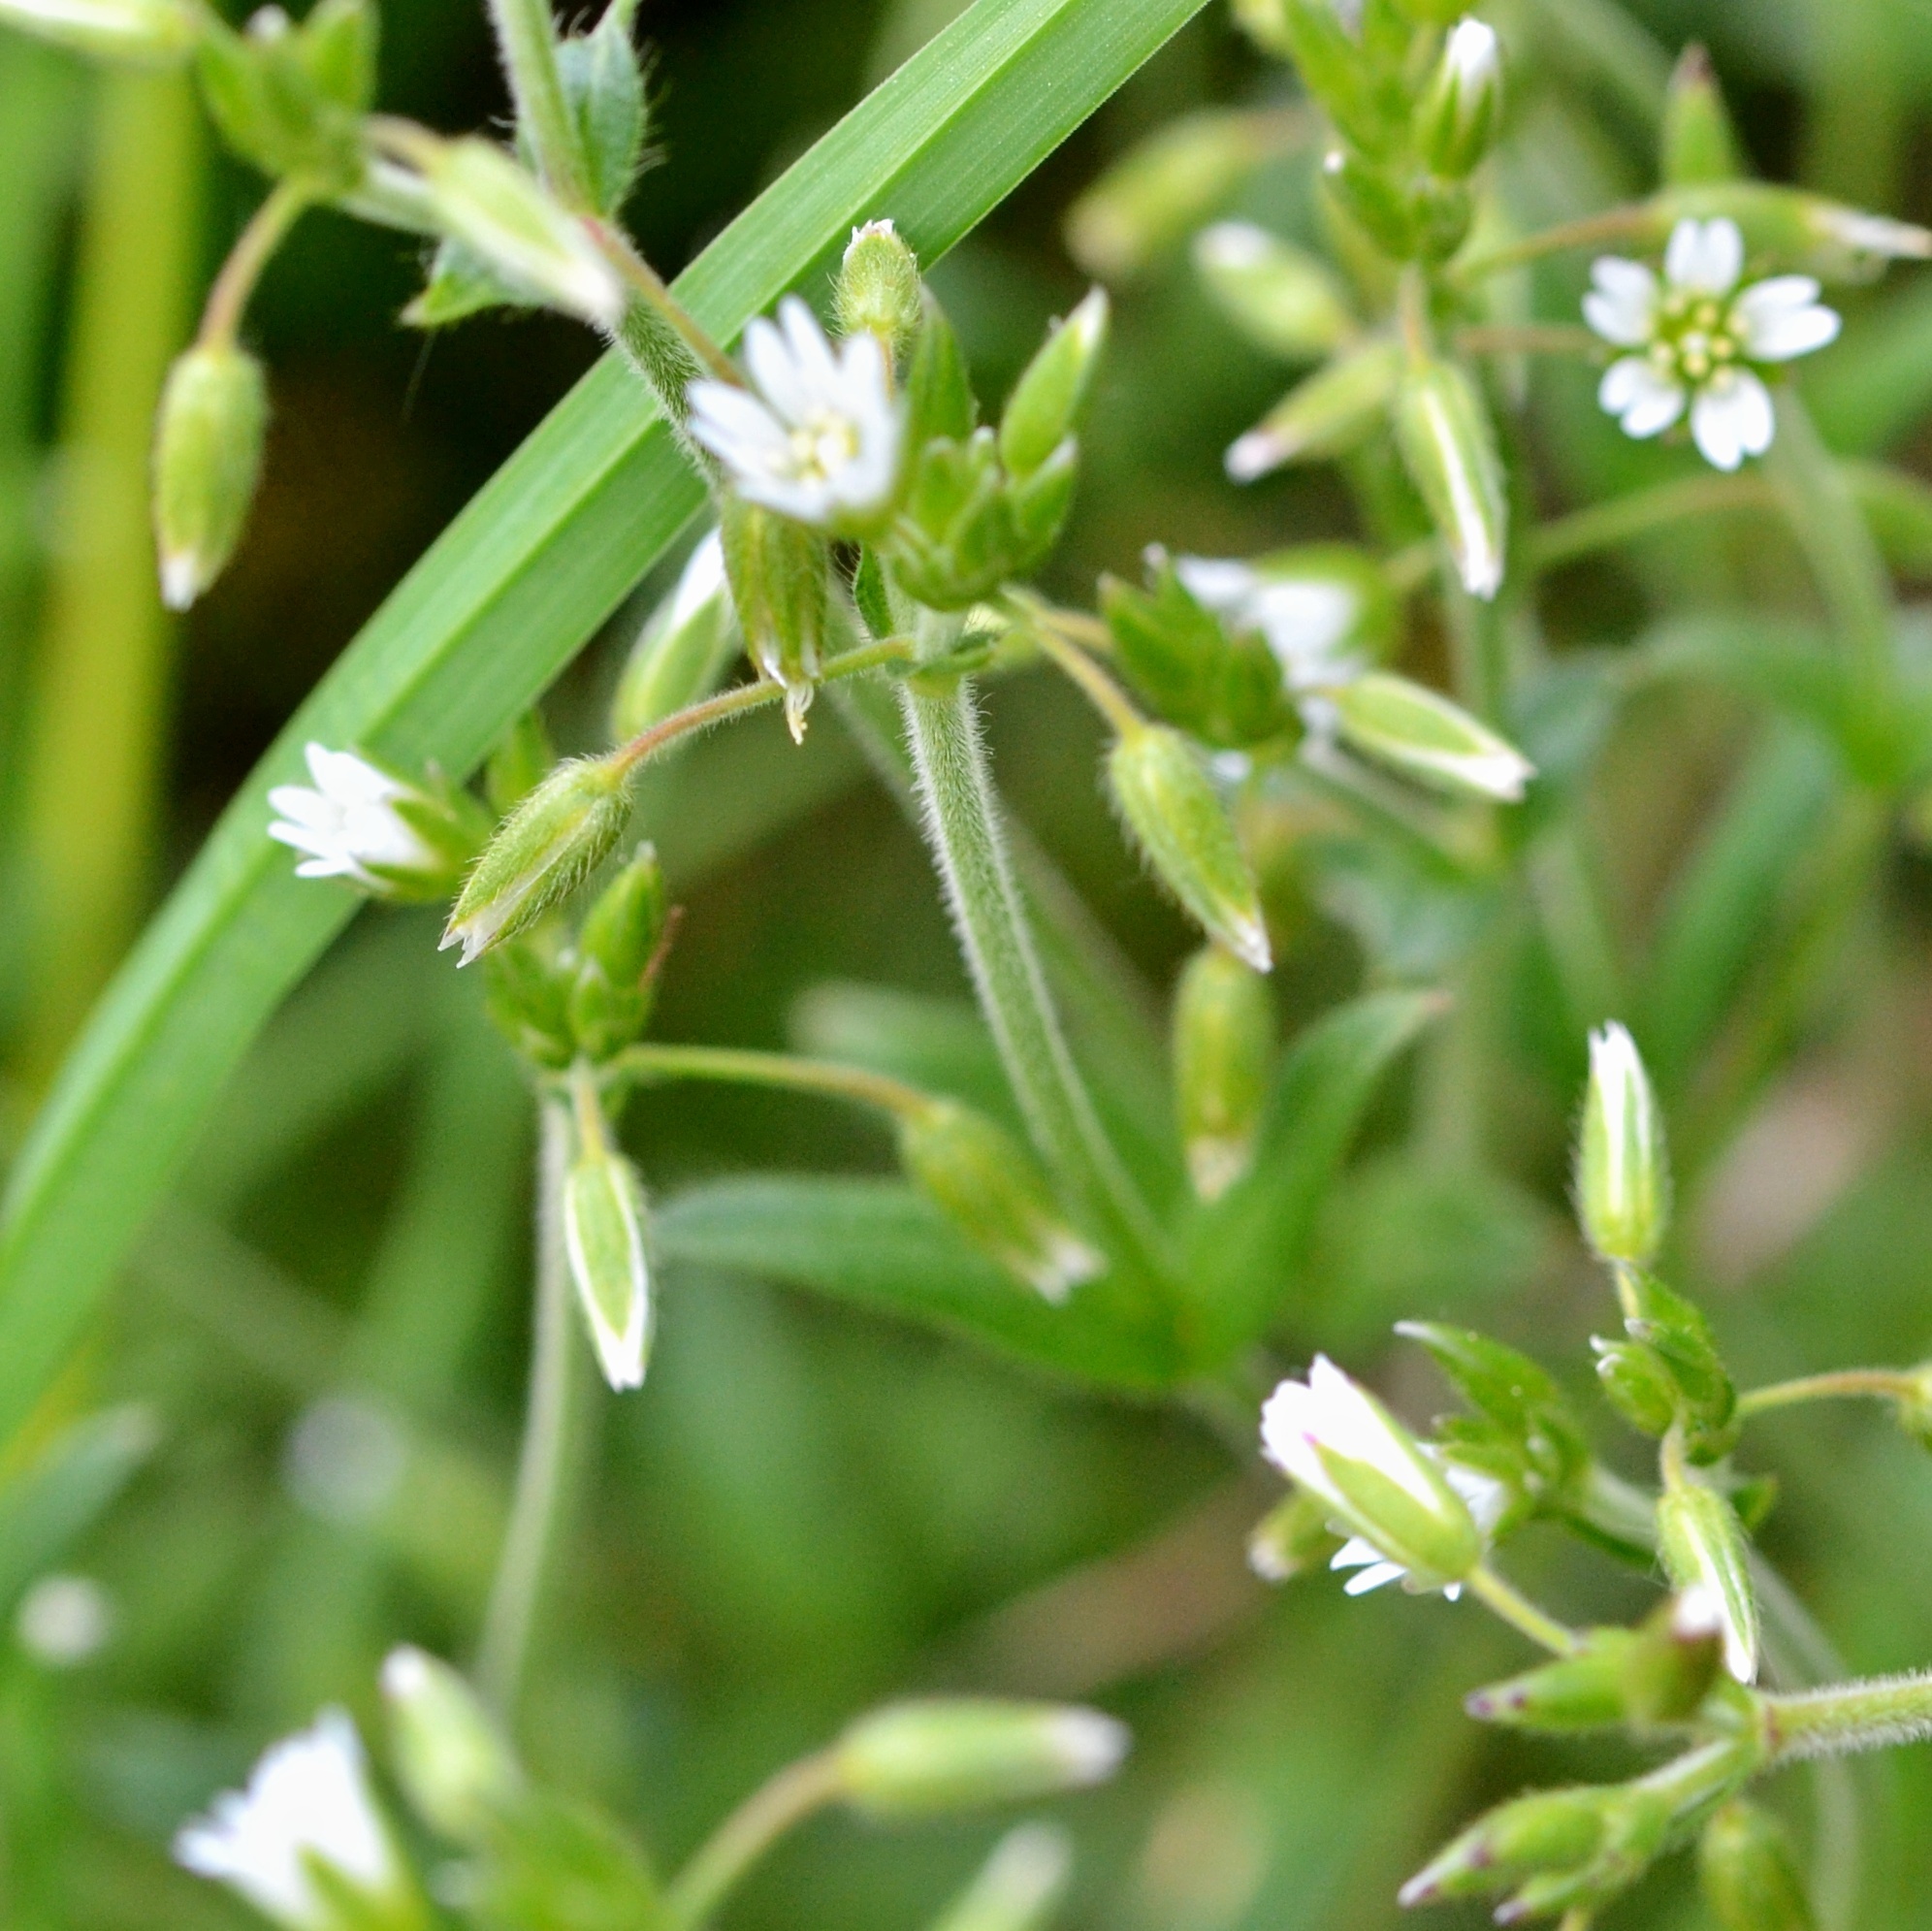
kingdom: Plantae
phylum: Tracheophyta
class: Magnoliopsida
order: Caryophyllales
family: Caryophyllaceae
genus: Cerastium
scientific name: Cerastium holosteoides
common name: Big chickweed
